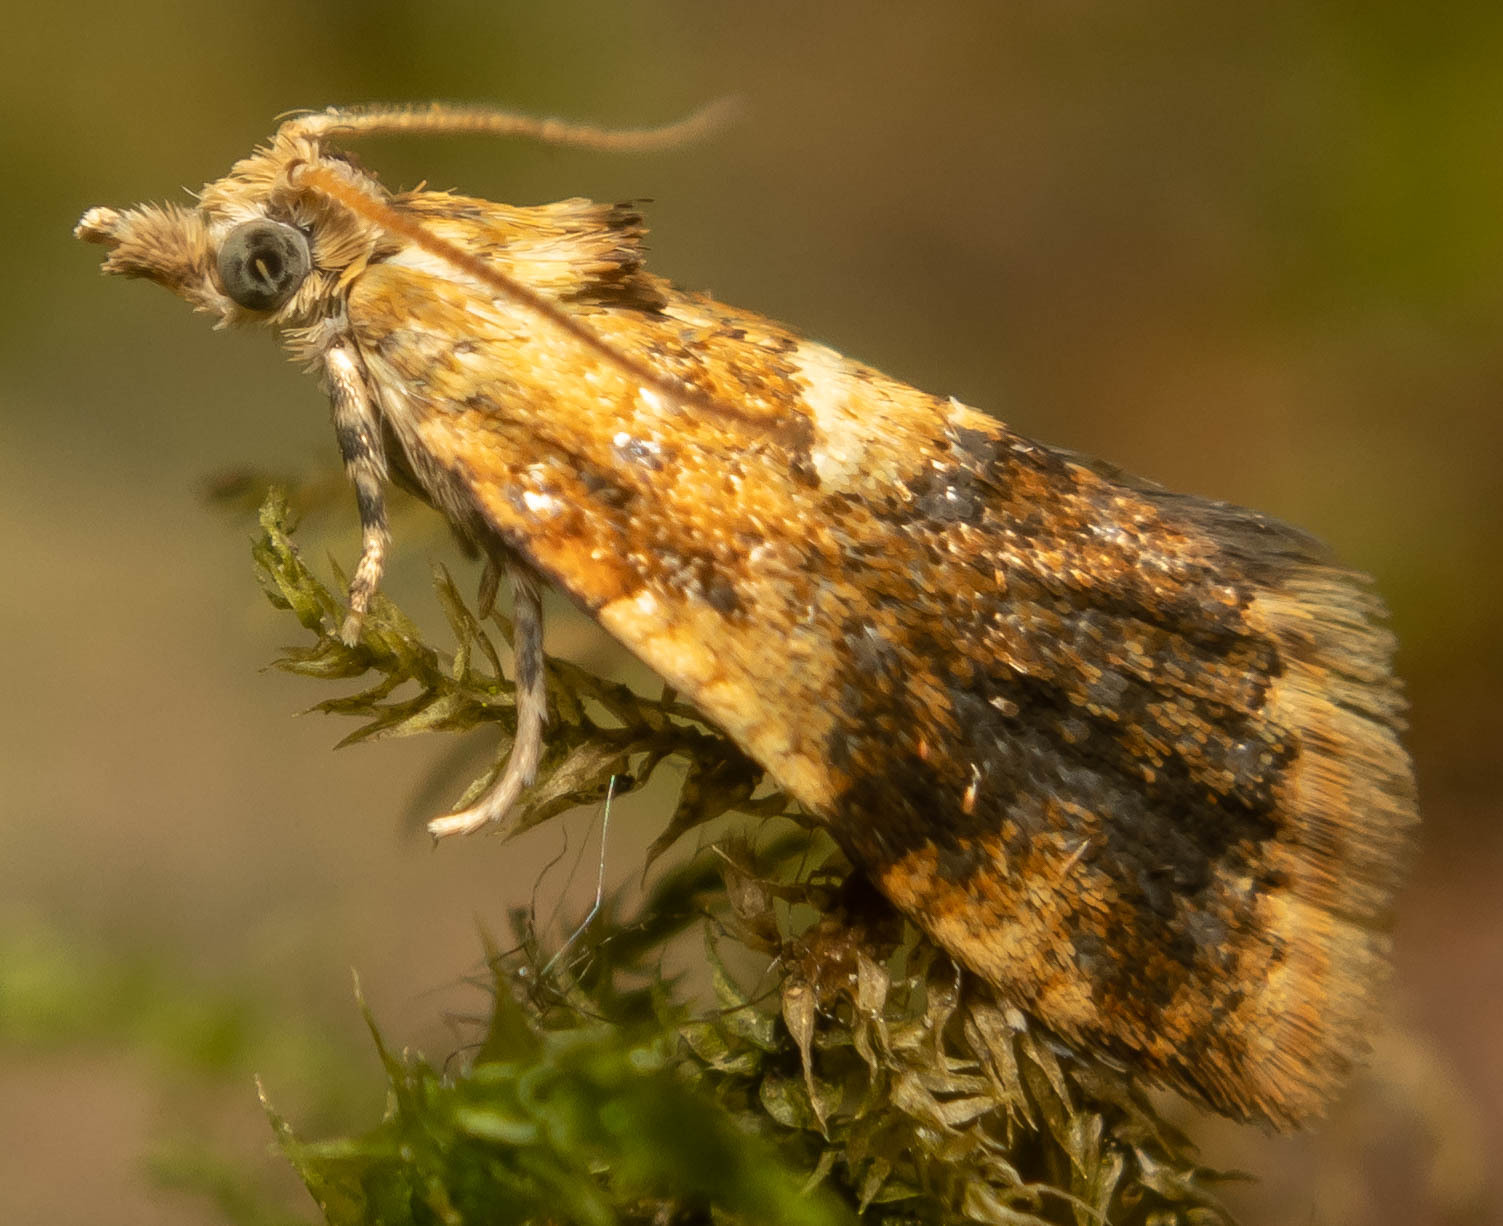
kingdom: Animalia
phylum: Arthropoda
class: Insecta
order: Lepidoptera
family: Tortricidae
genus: Pseudargyrotoza
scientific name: Pseudargyrotoza conwagana
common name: Yellow-spot twist
